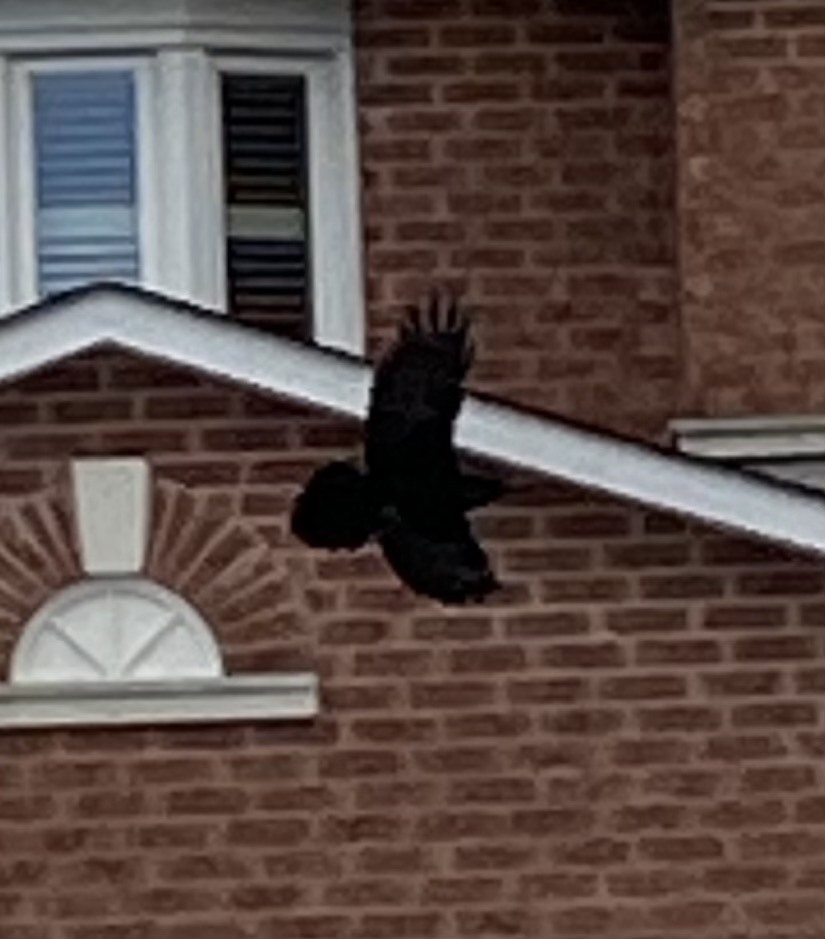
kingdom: Animalia
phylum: Chordata
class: Aves
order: Passeriformes
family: Corvidae
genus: Corvus
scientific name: Corvus corax
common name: Common raven
